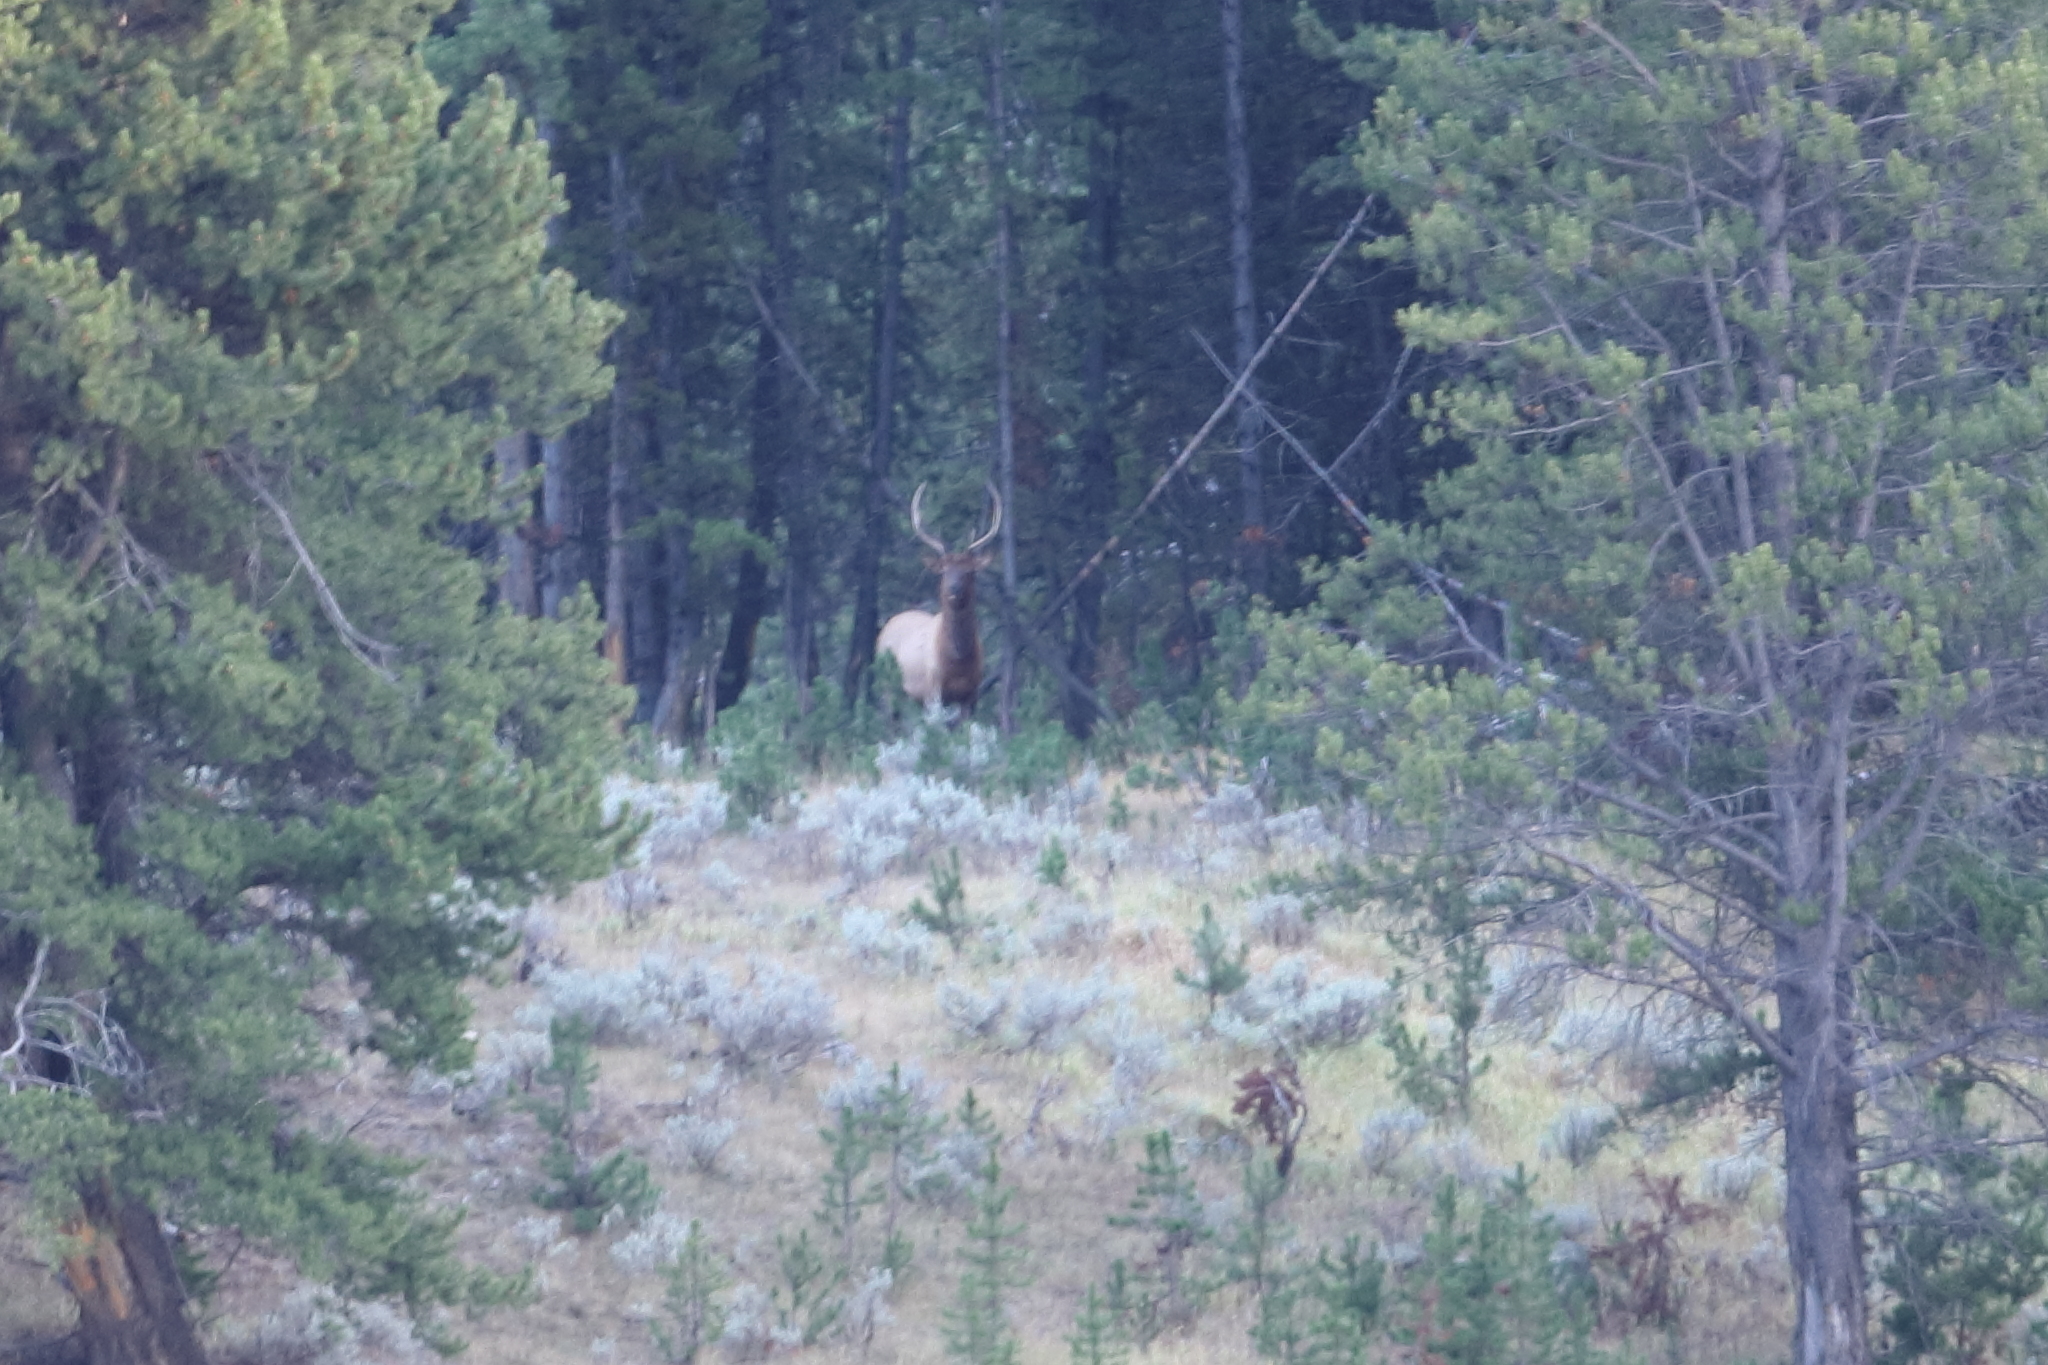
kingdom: Animalia
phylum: Chordata
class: Mammalia
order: Artiodactyla
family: Cervidae
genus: Cervus
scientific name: Cervus elaphus
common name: Red deer
